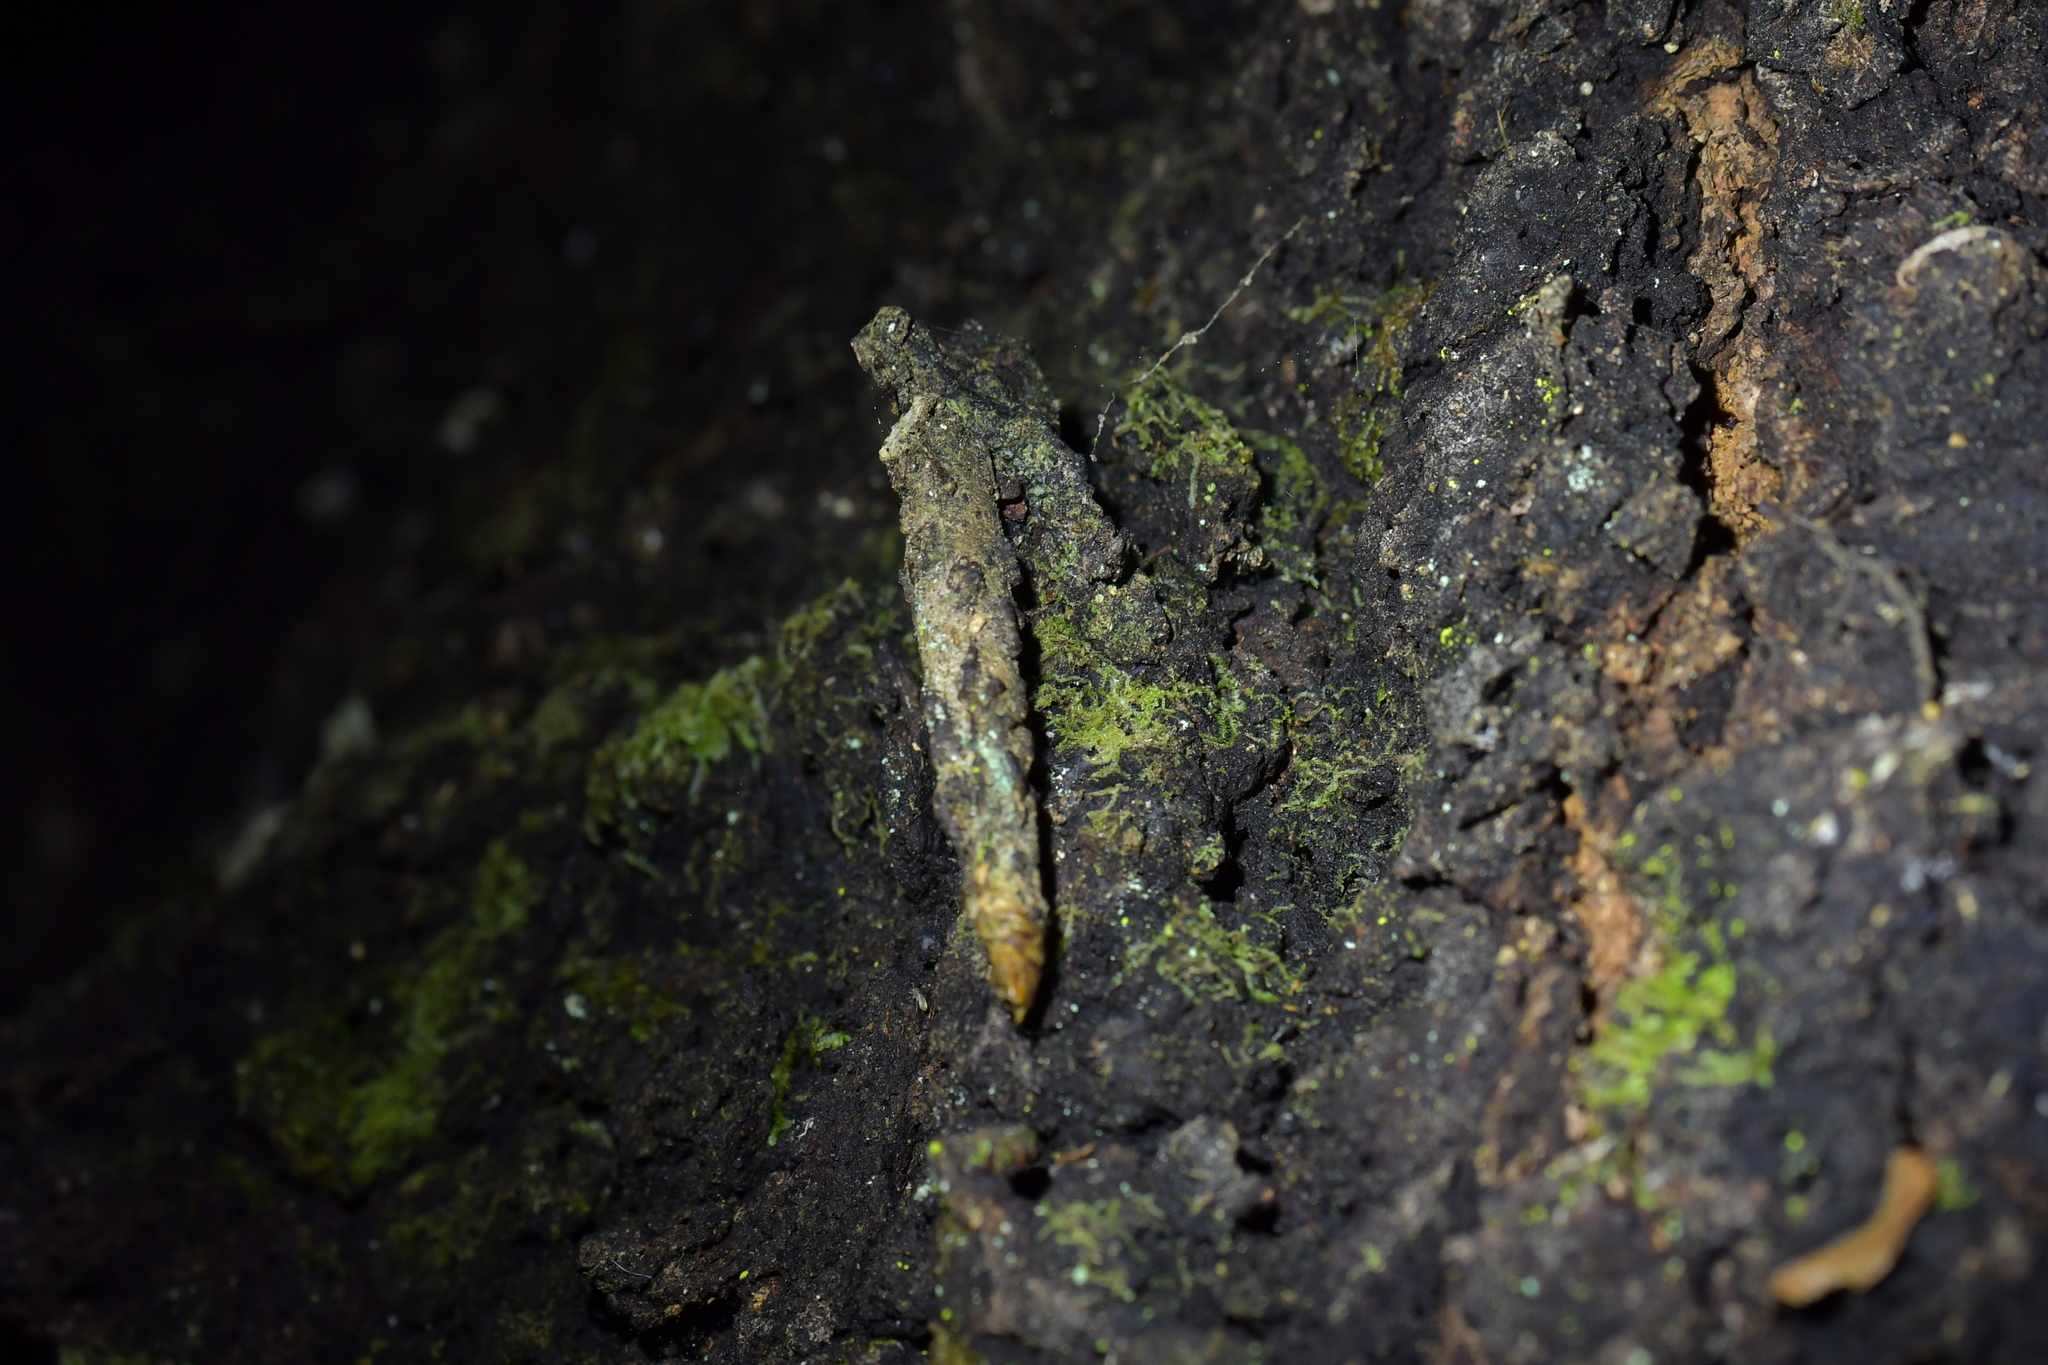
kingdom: Animalia
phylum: Arthropoda
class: Insecta
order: Lepidoptera
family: Psychidae
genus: Liothula
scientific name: Liothula omnivora
